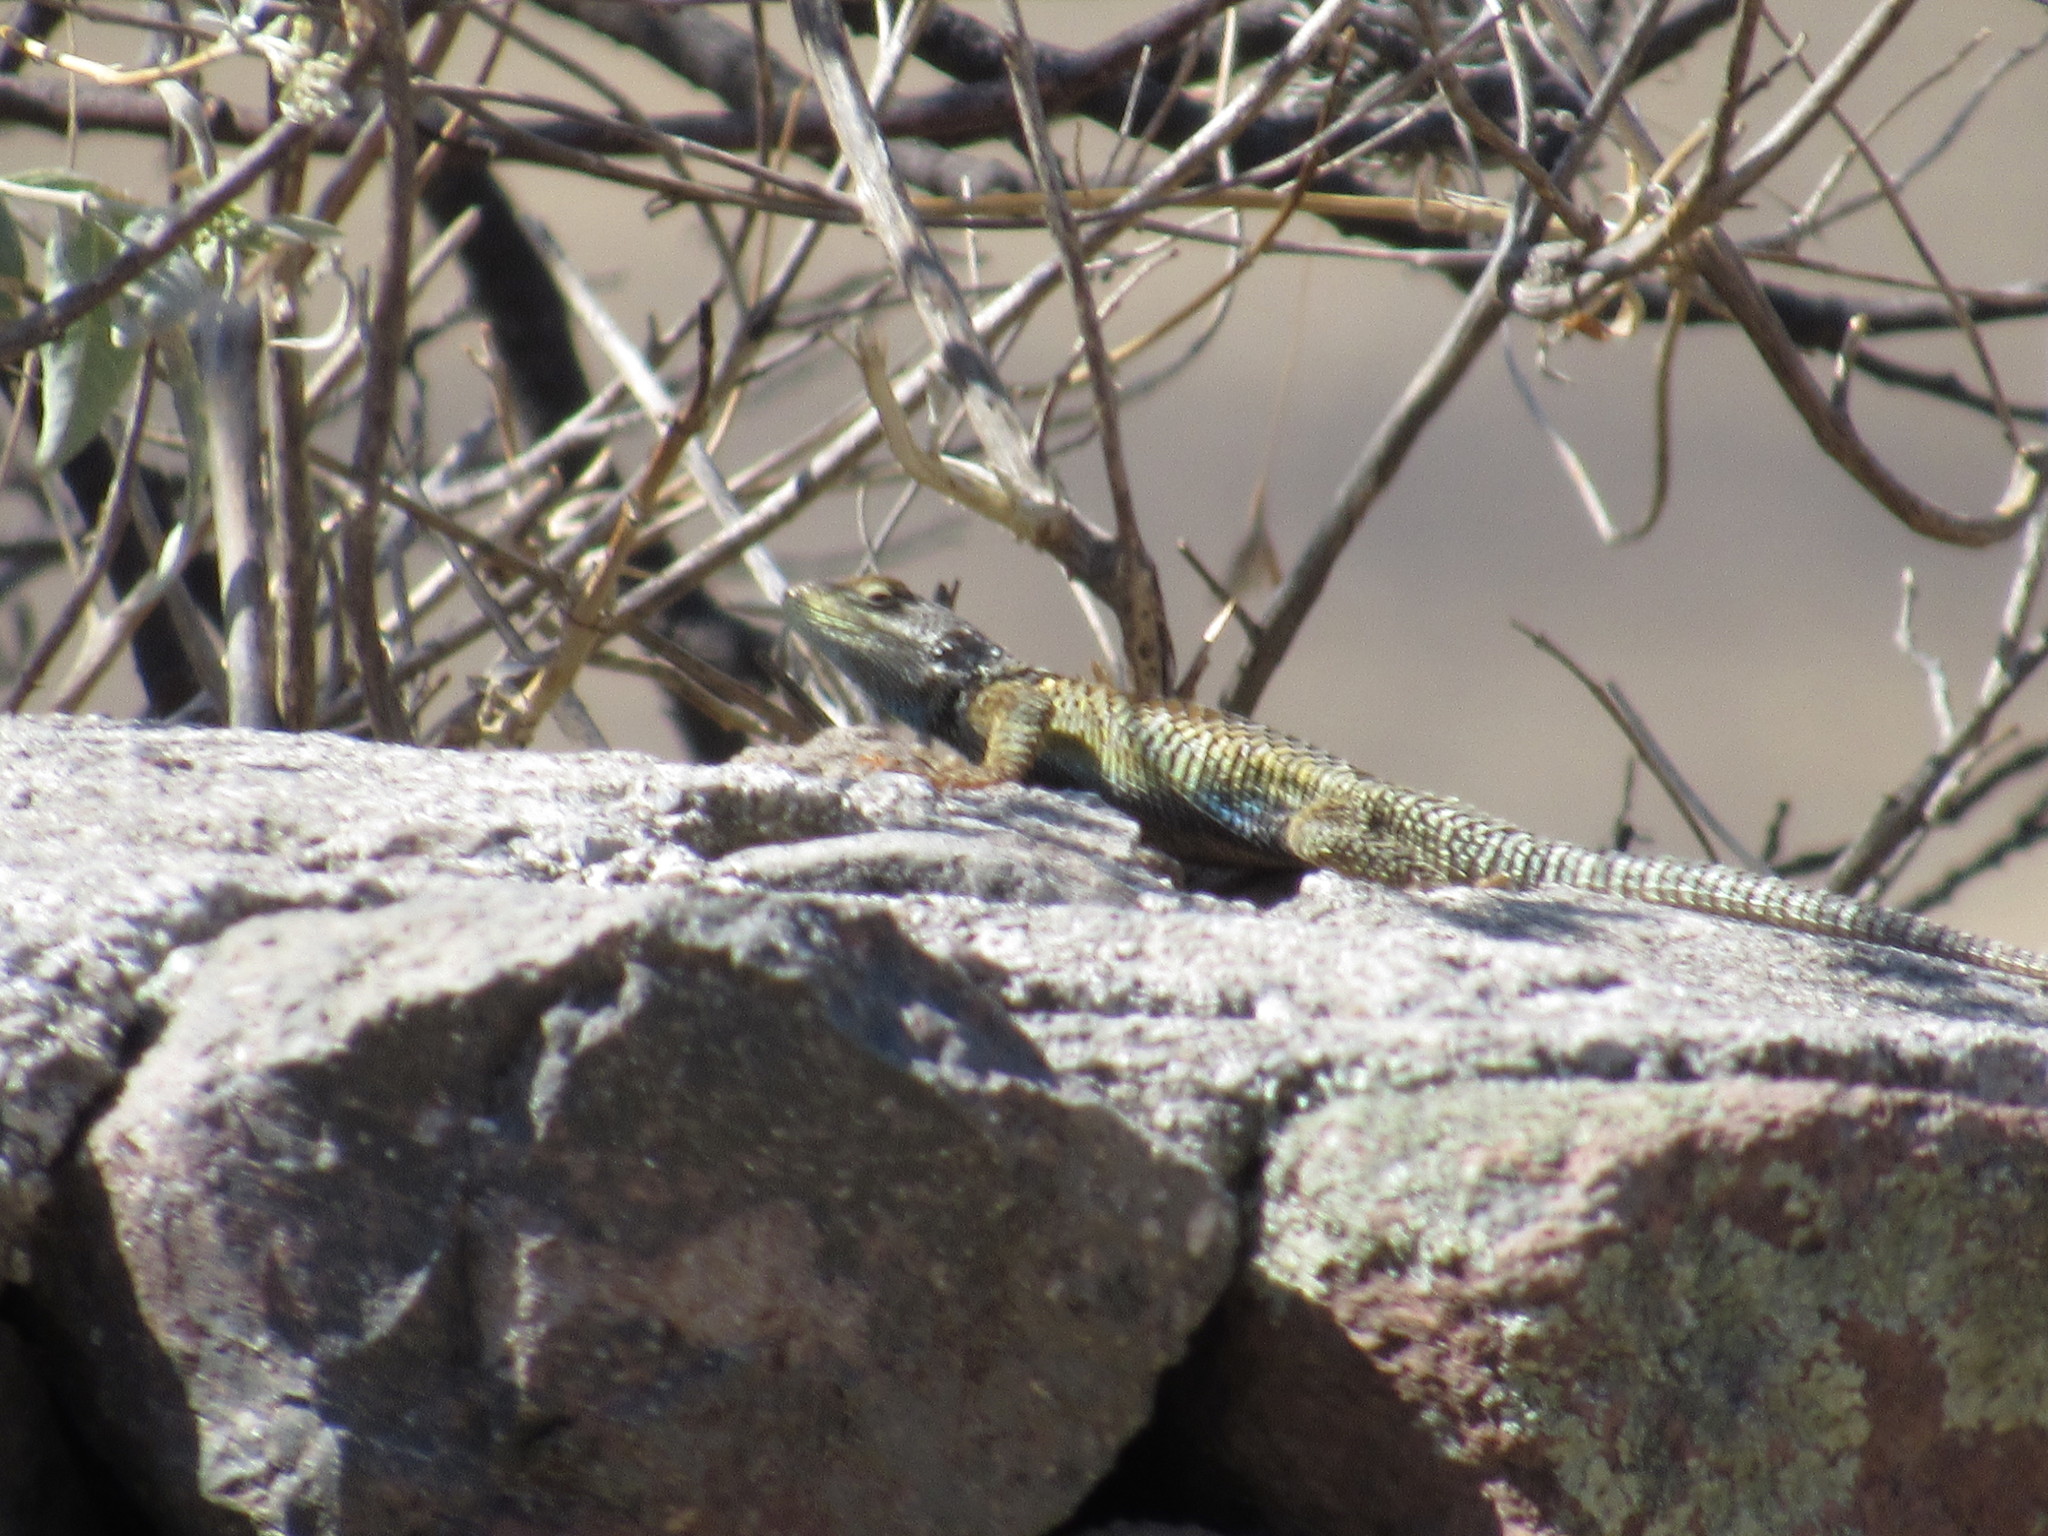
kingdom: Animalia
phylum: Chordata
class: Squamata
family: Phrynosomatidae
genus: Sceloporus
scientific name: Sceloporus torquatus
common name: Central plateau torquate lizard [melanogaster]
